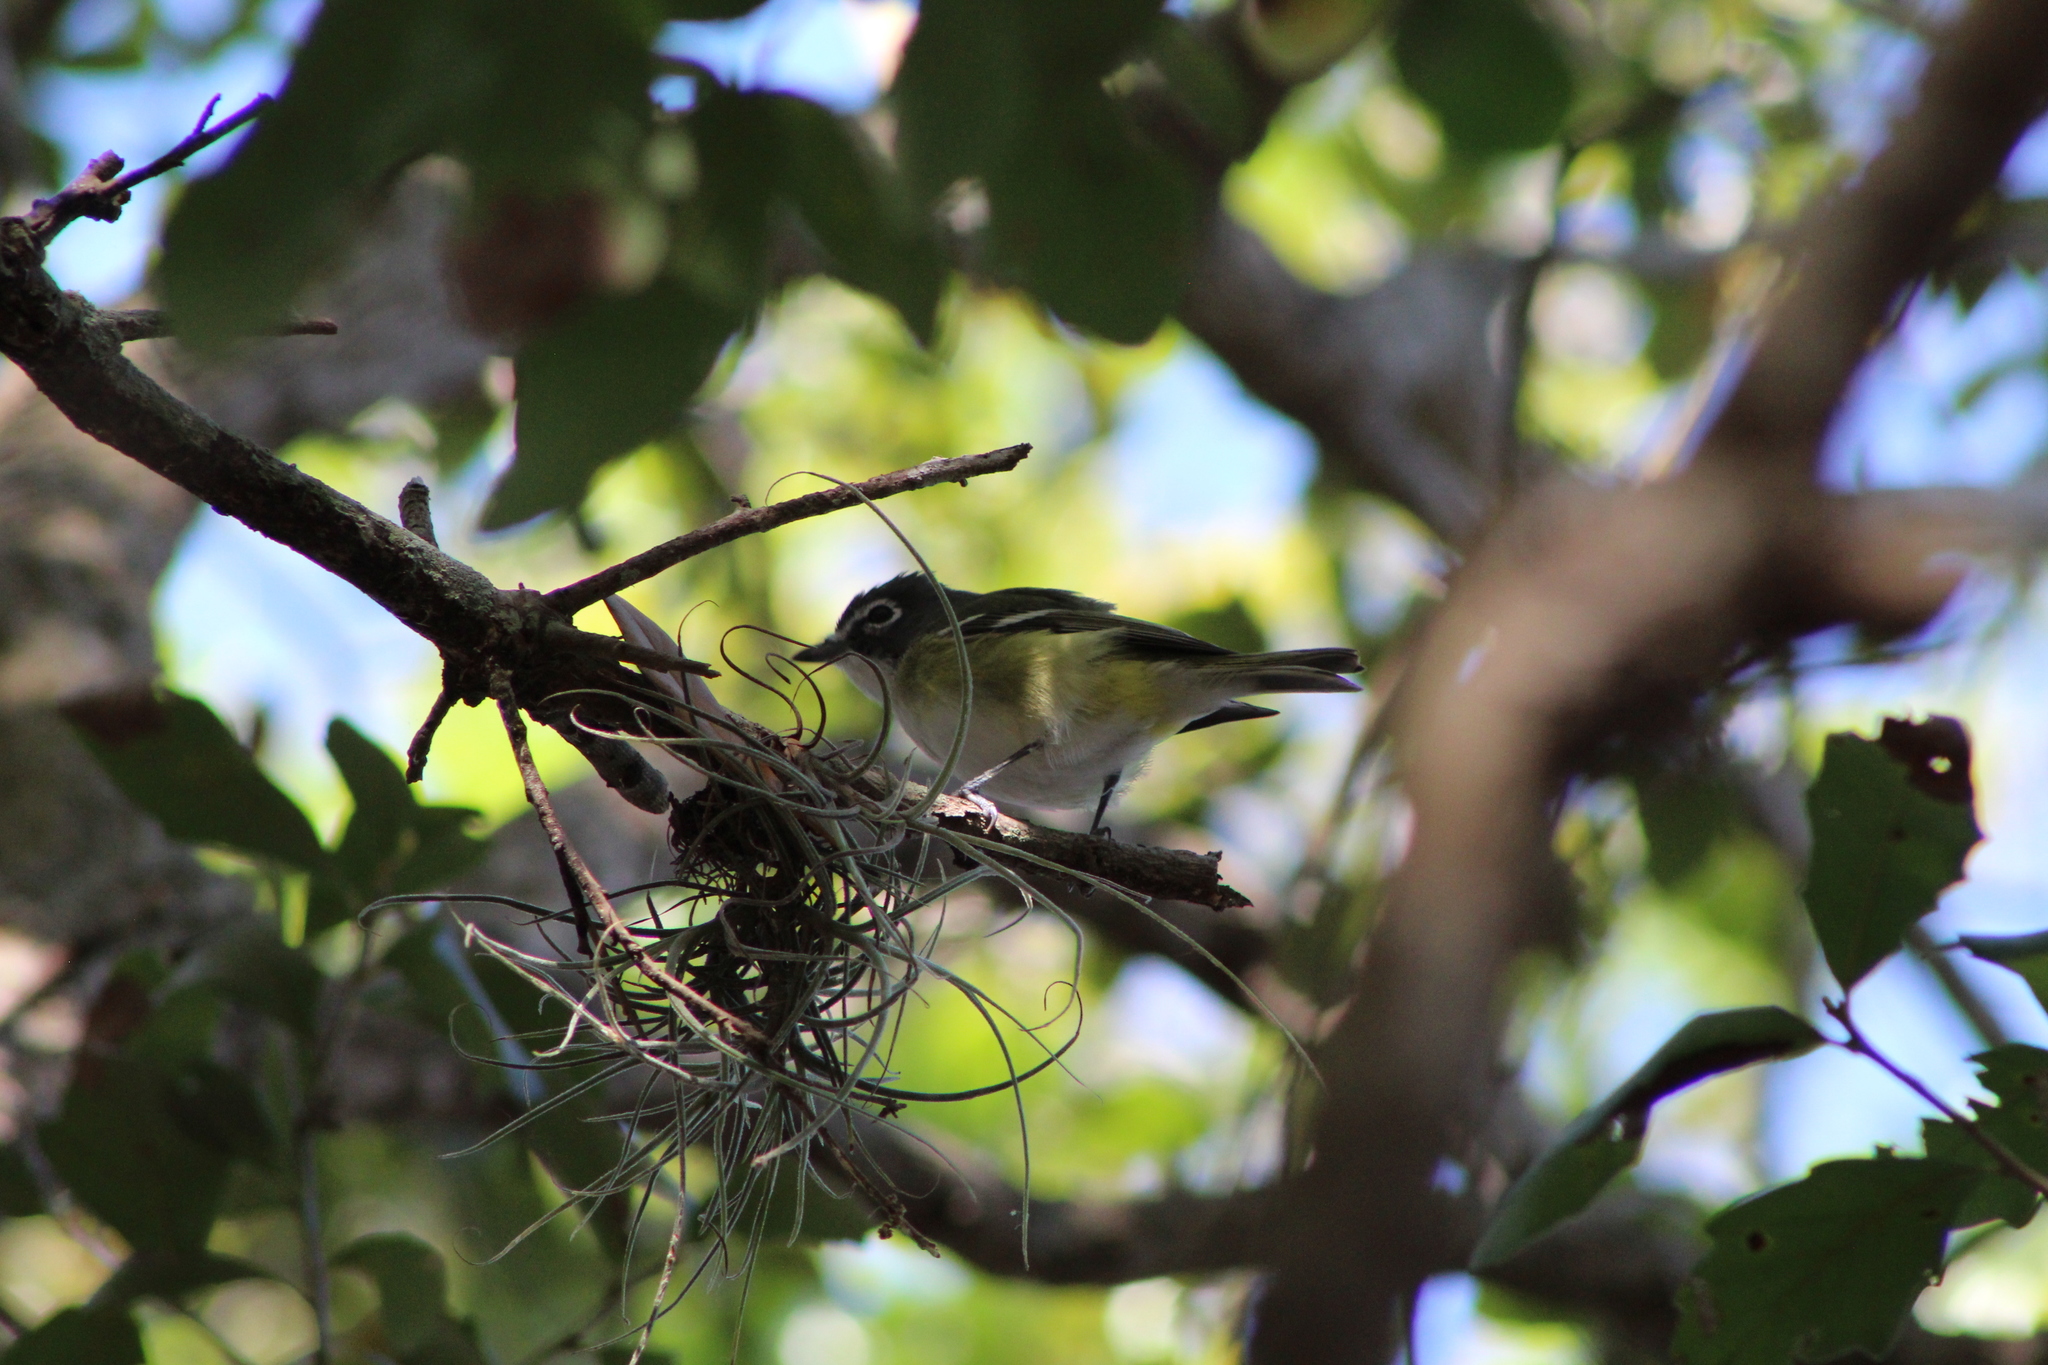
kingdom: Animalia
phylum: Chordata
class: Aves
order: Passeriformes
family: Vireonidae
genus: Vireo
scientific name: Vireo solitarius
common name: Blue-headed vireo
